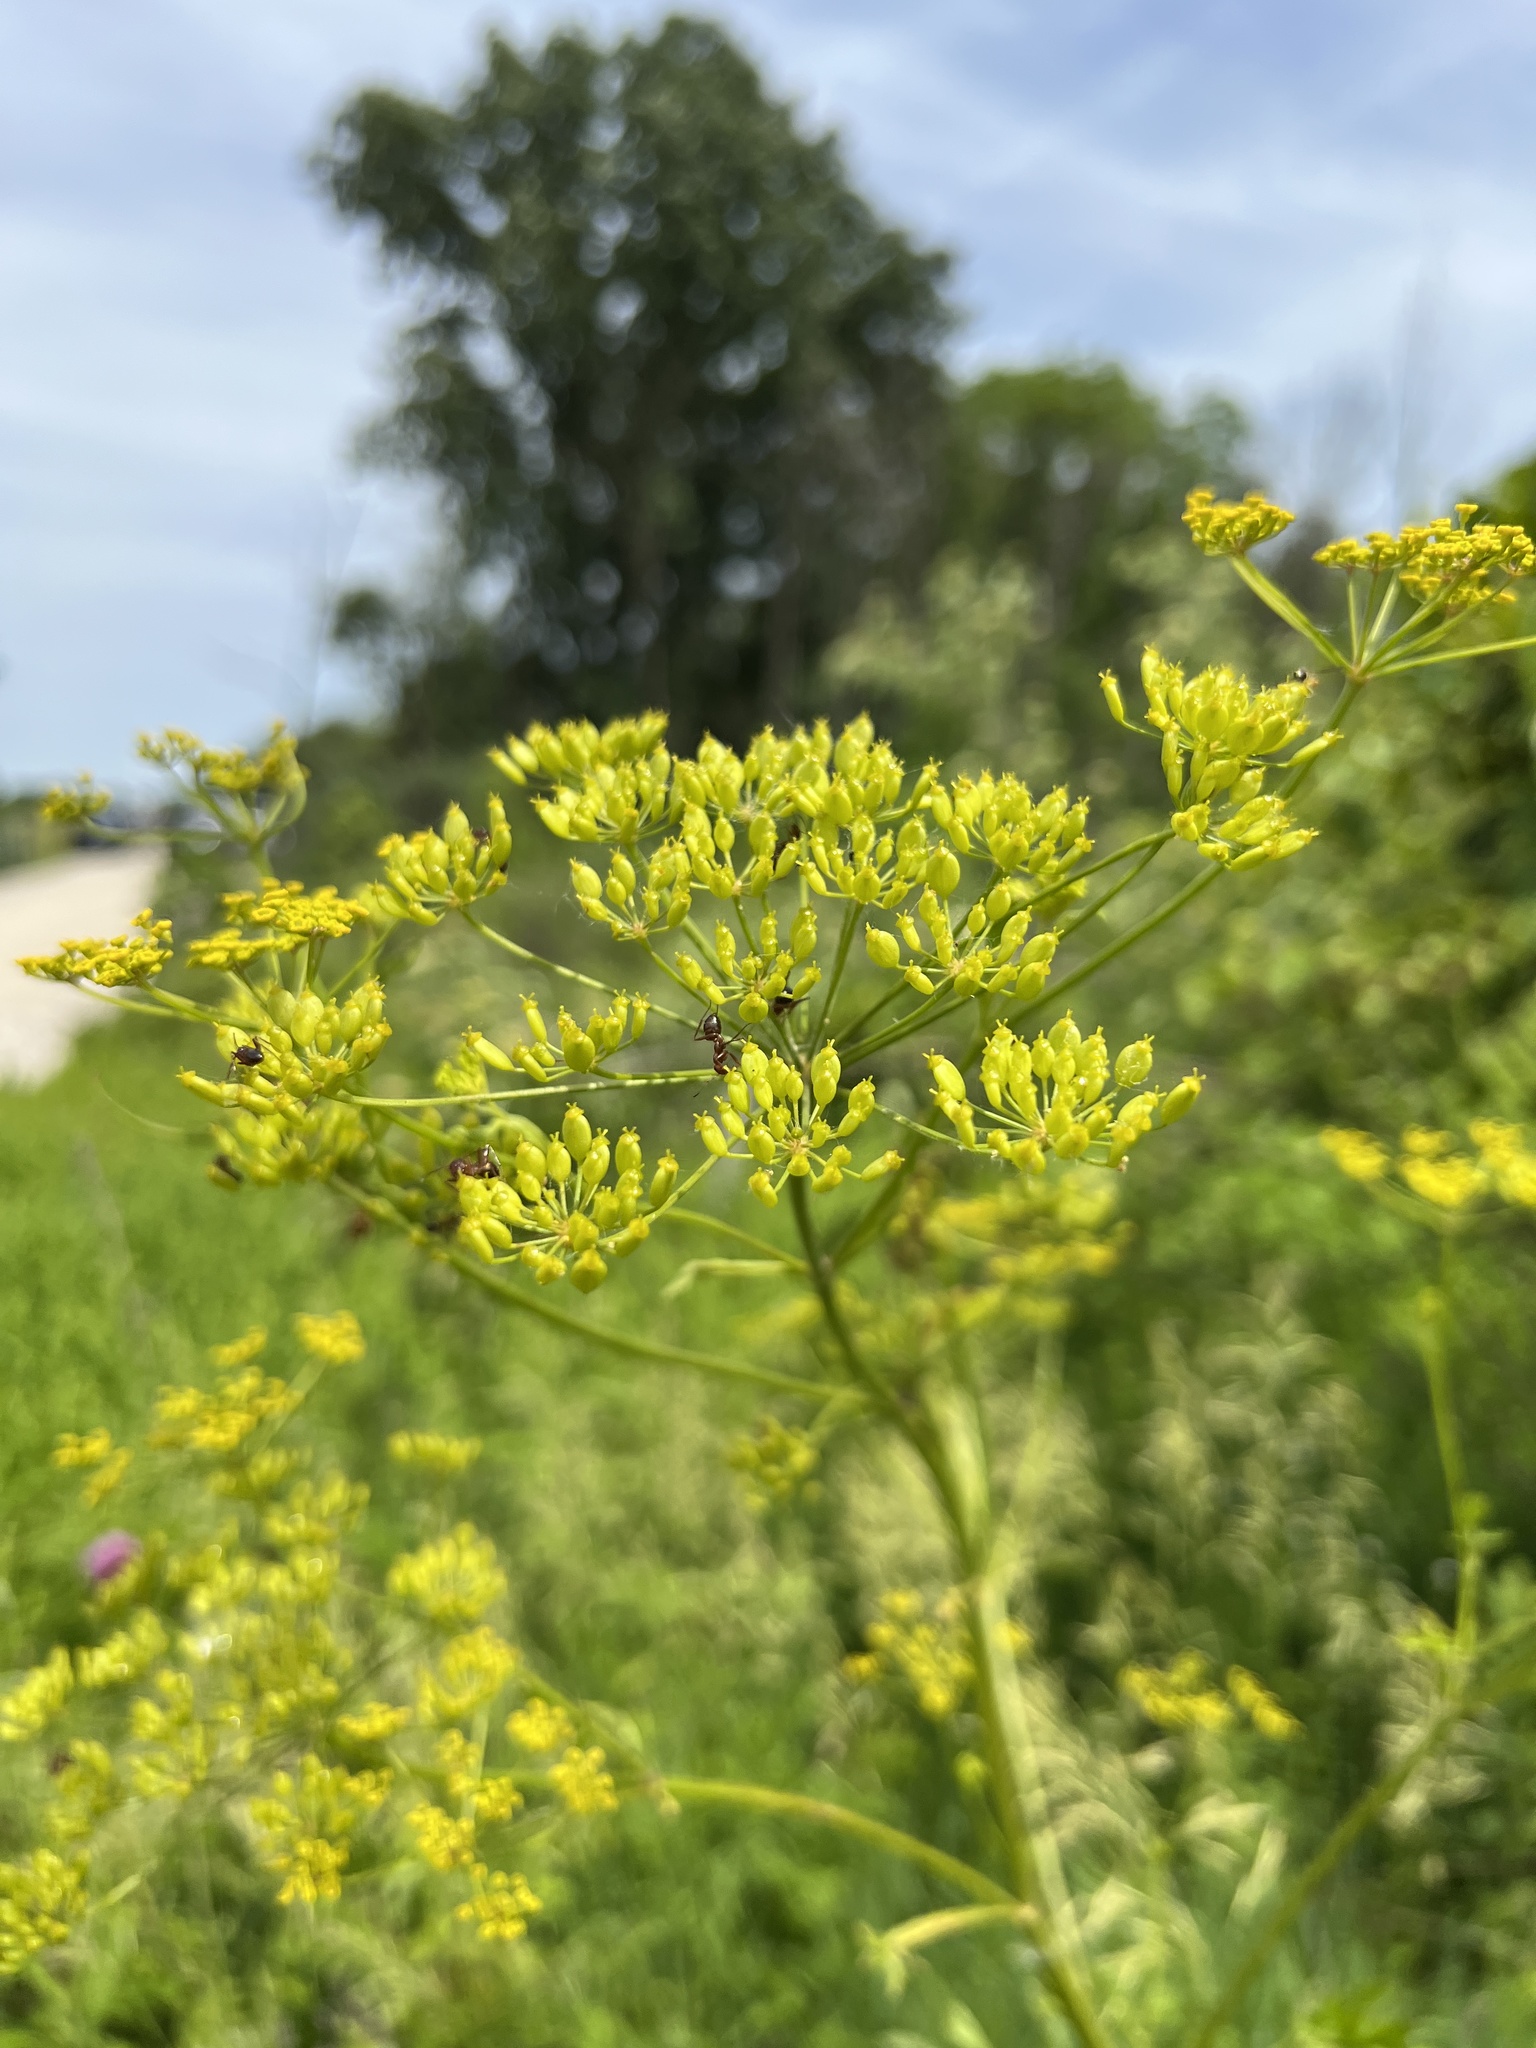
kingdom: Plantae
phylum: Tracheophyta
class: Magnoliopsida
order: Apiales
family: Apiaceae
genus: Pastinaca
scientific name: Pastinaca sativa
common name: Wild parsnip
